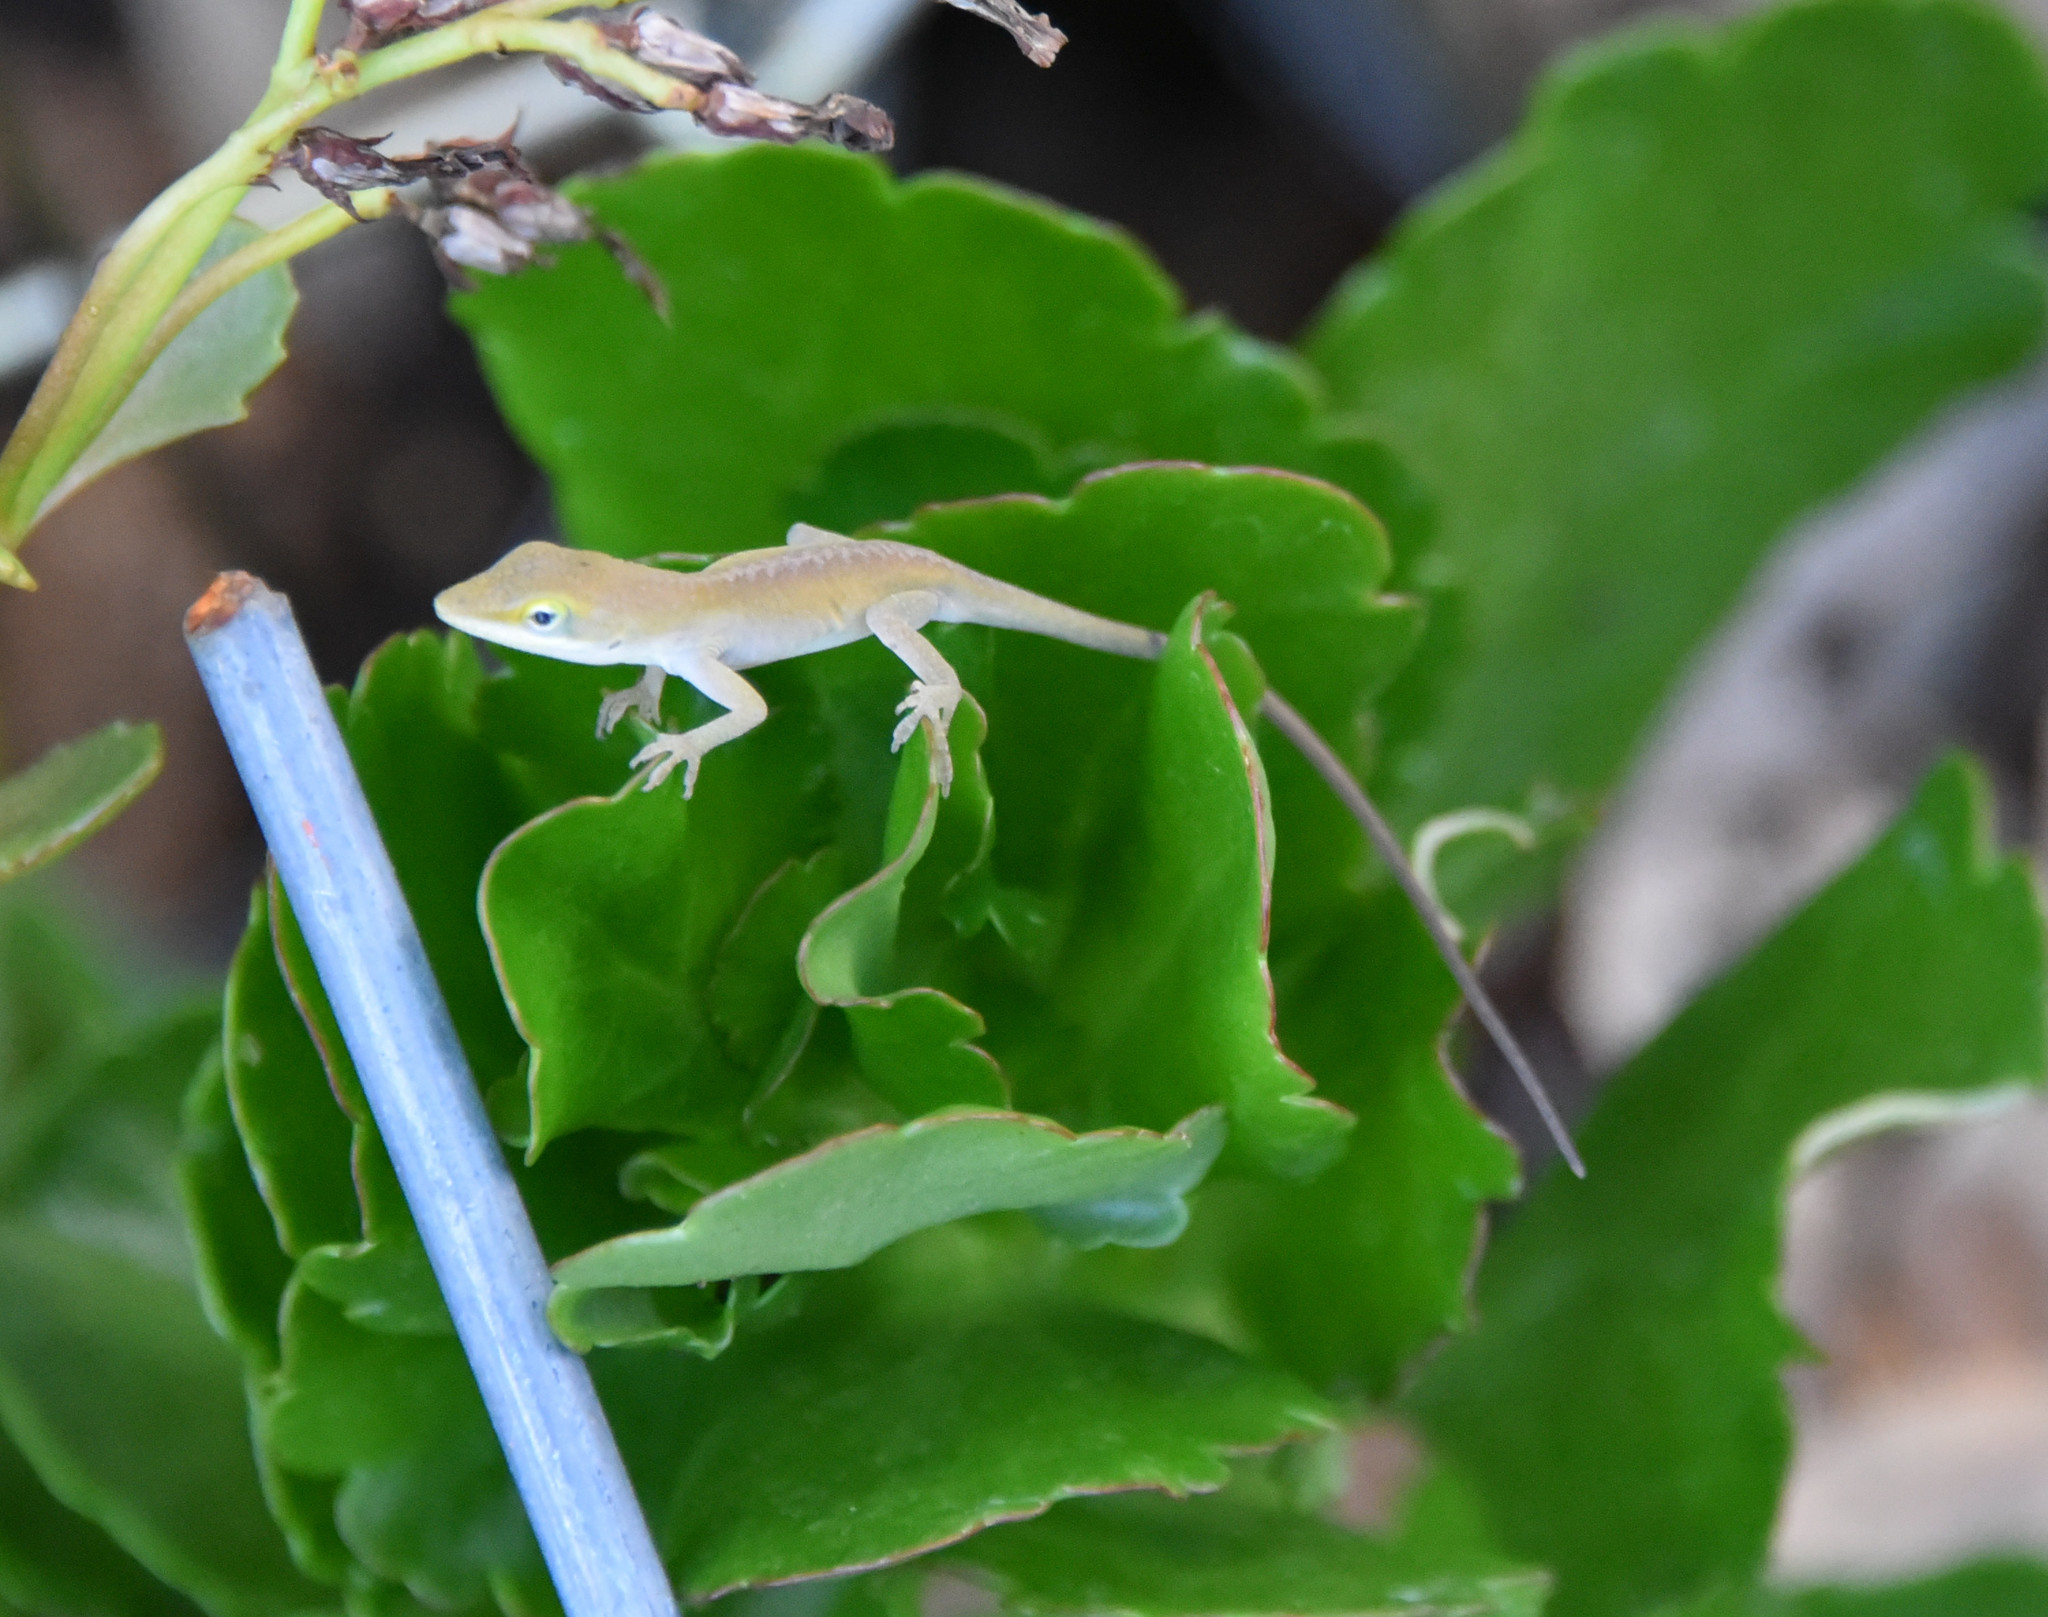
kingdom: Animalia
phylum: Chordata
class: Squamata
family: Dactyloidae
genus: Anolis
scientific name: Anolis carolinensis
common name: Green anole
